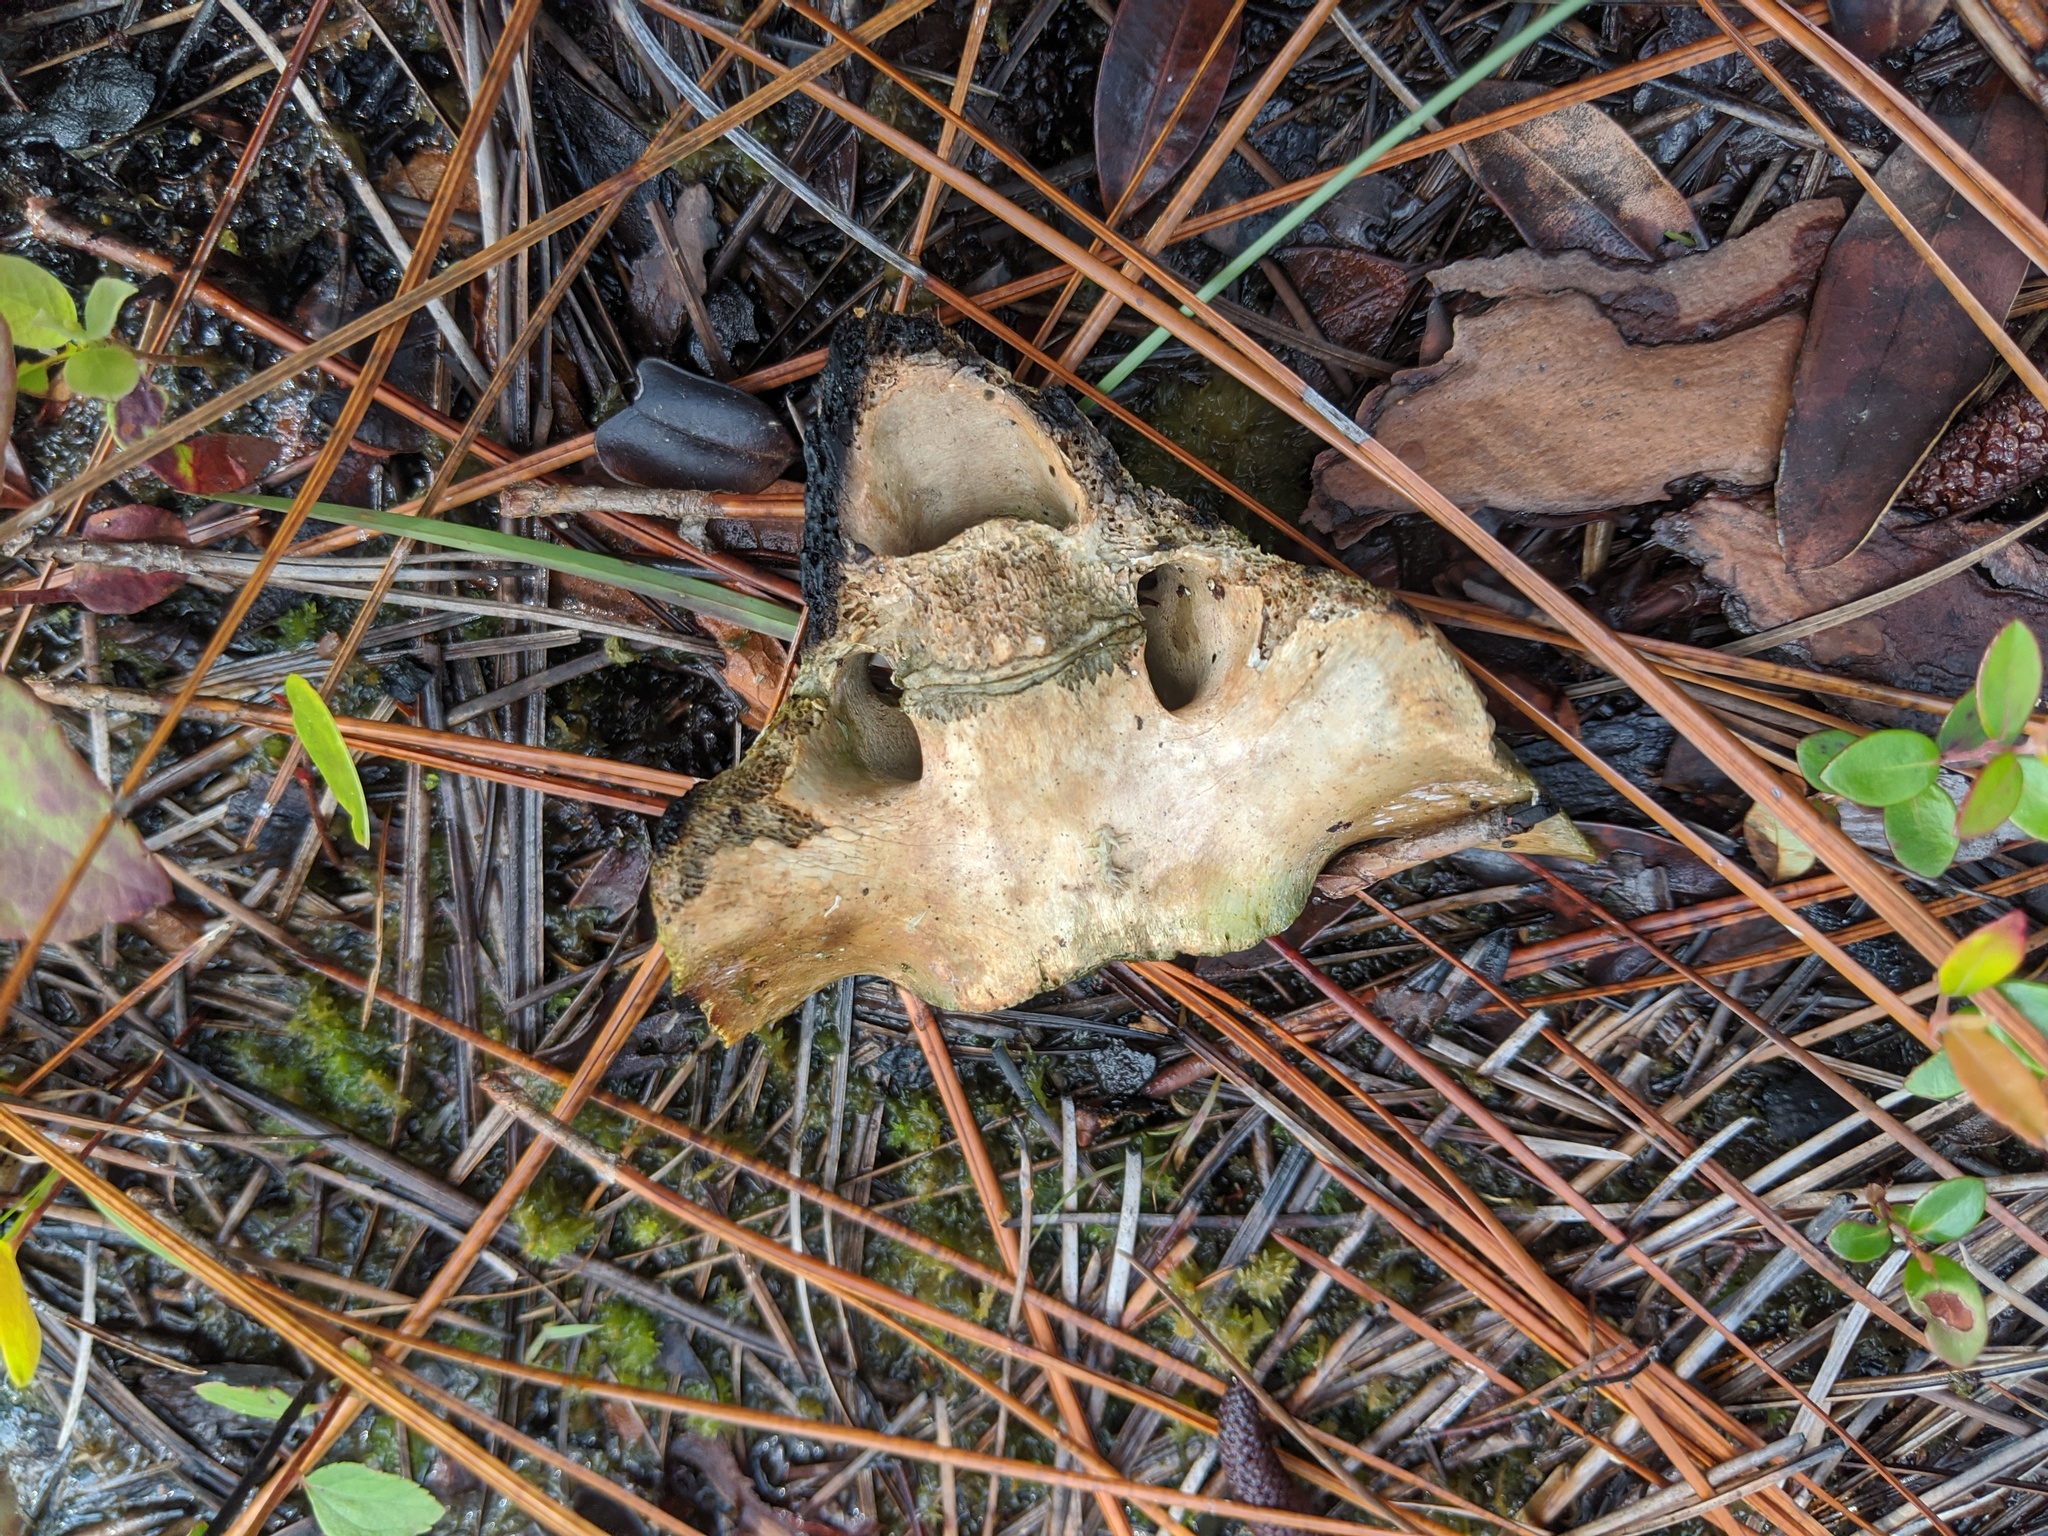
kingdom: Animalia
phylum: Chordata
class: Mammalia
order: Artiodactyla
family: Cervidae
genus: Odocoileus
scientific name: Odocoileus virginianus
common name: White-tailed deer
